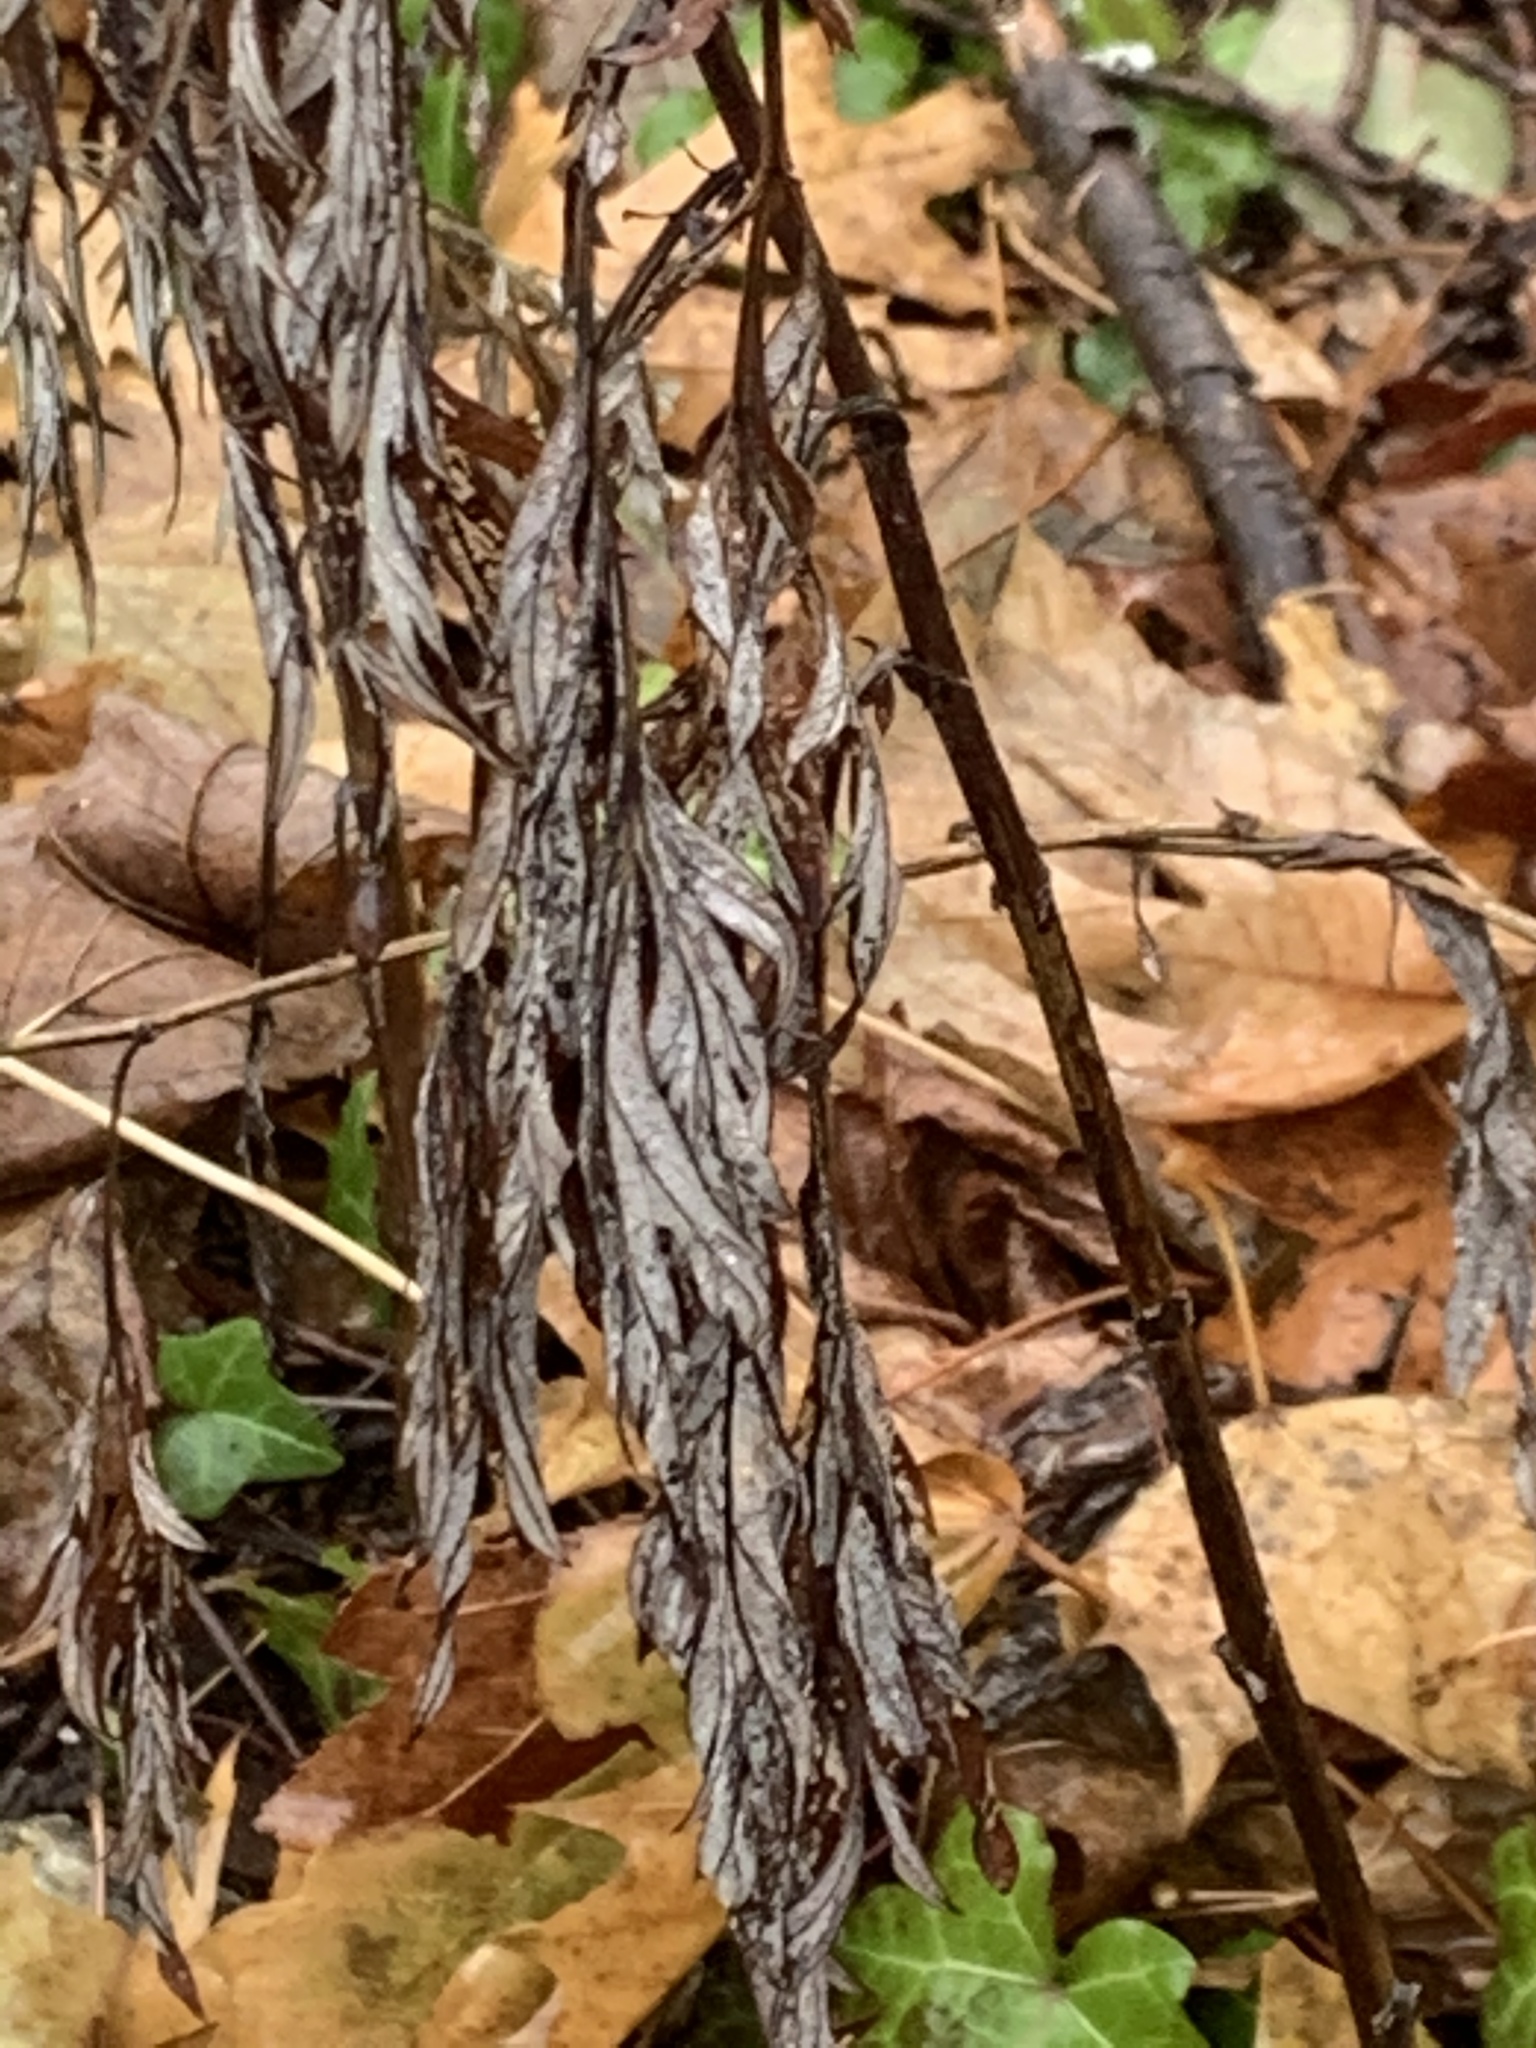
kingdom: Plantae
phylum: Tracheophyta
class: Magnoliopsida
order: Asterales
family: Asteraceae
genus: Artemisia
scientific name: Artemisia vulgaris
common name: Mugwort
